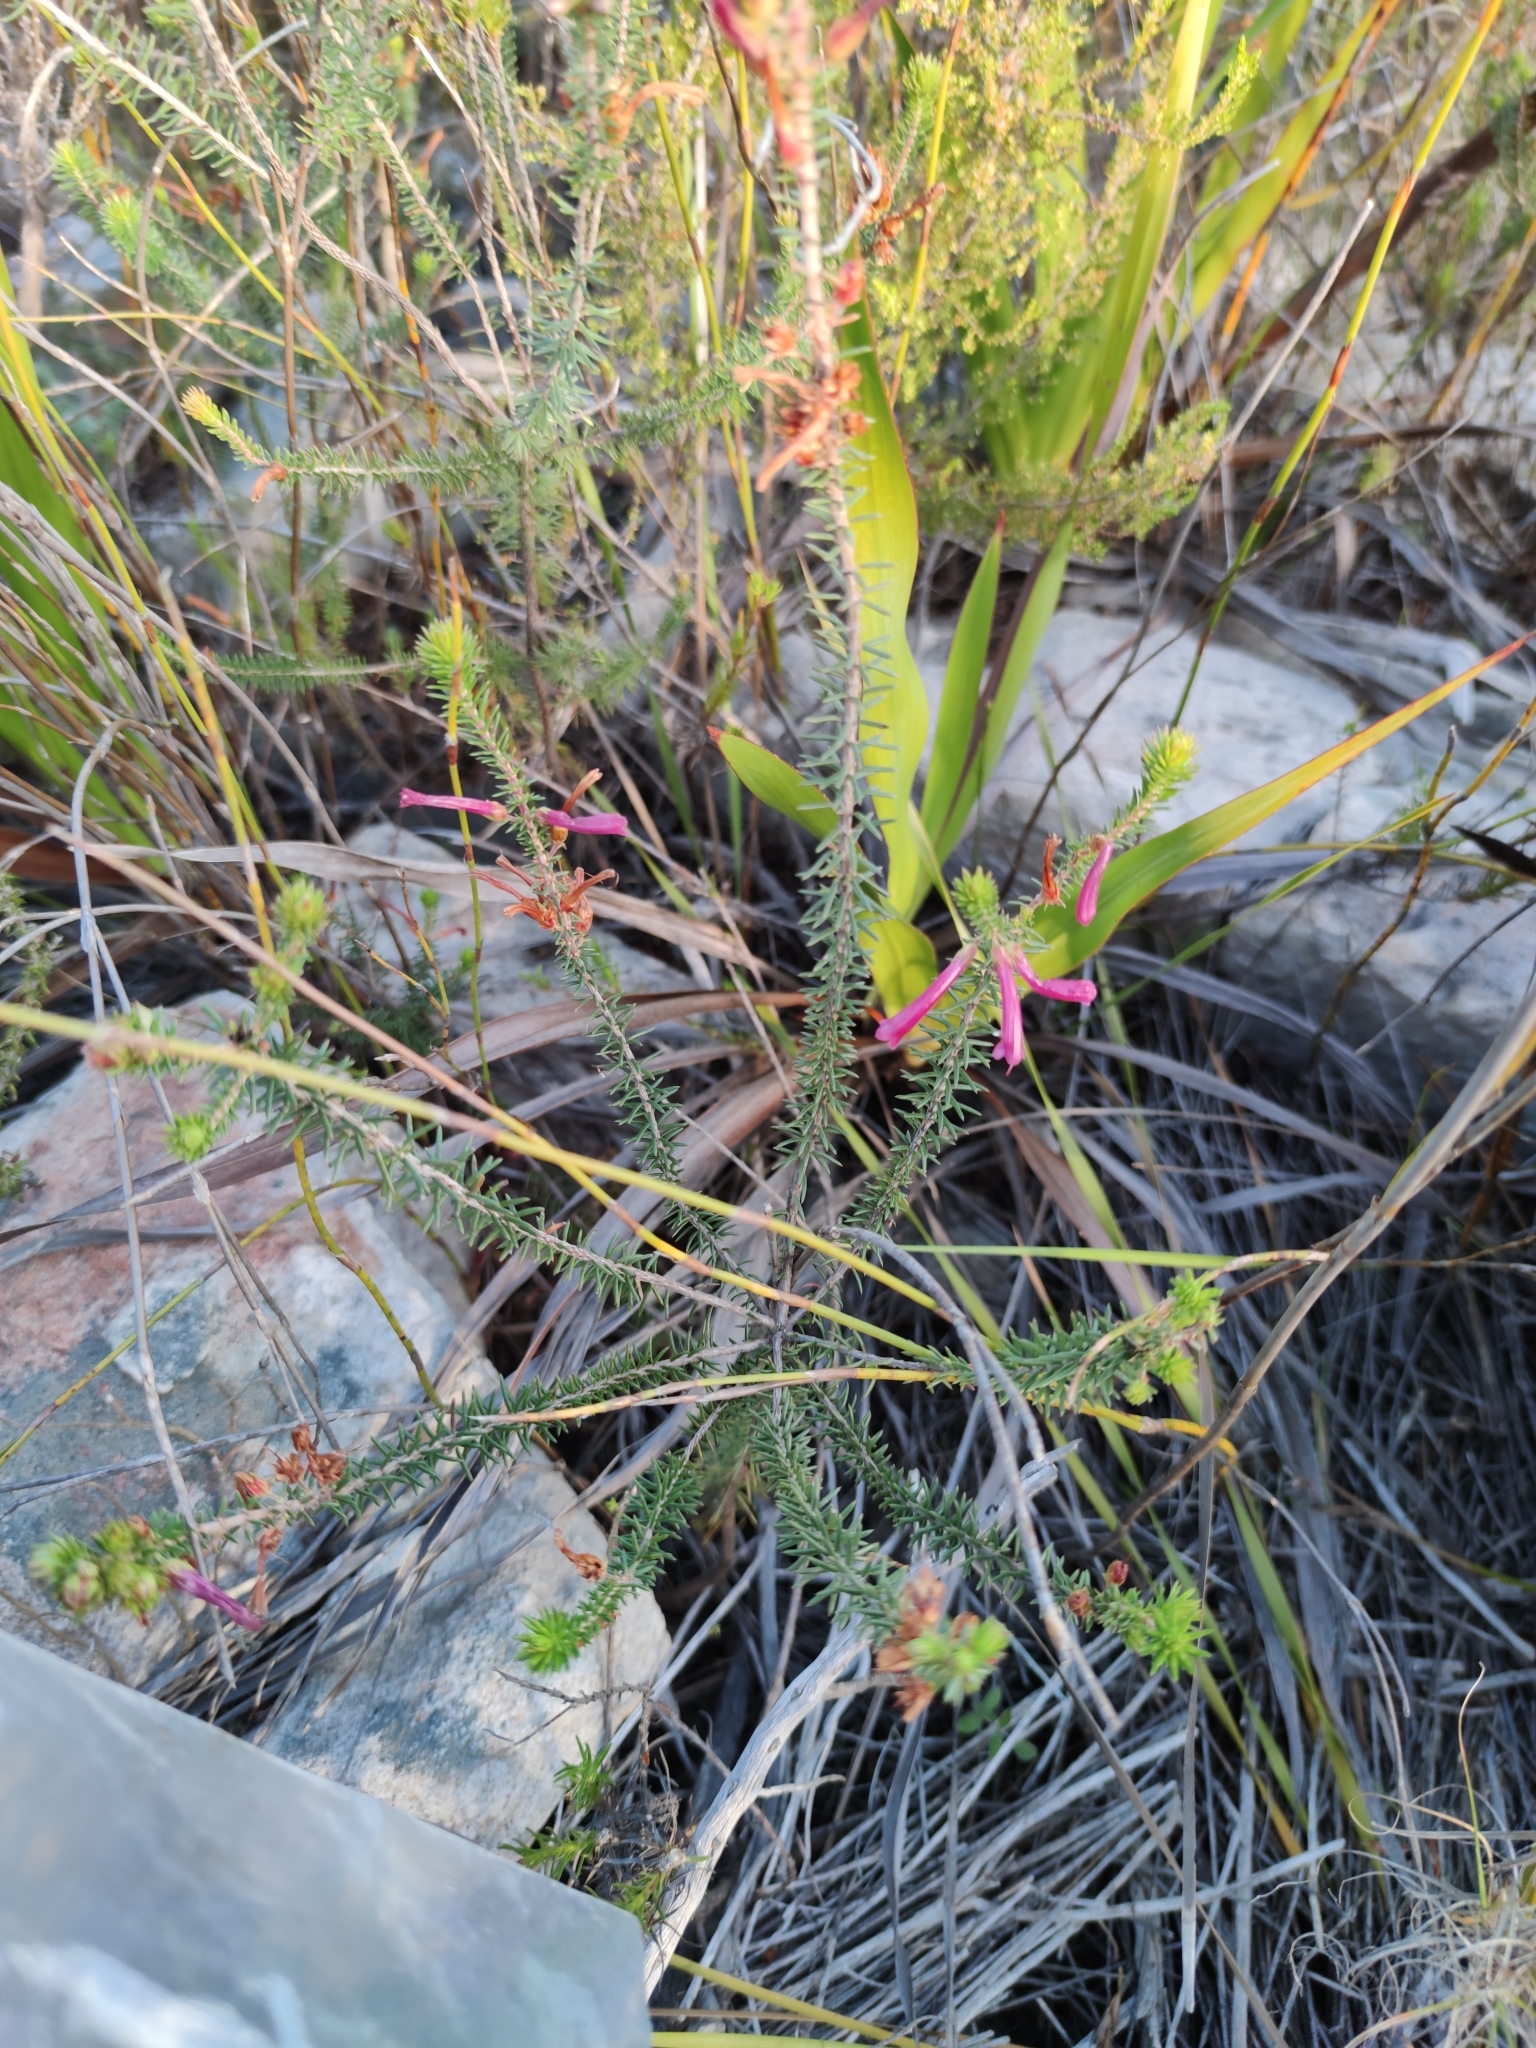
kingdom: Plantae
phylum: Tracheophyta
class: Magnoliopsida
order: Ericales
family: Ericaceae
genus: Erica
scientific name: Erica abietina
